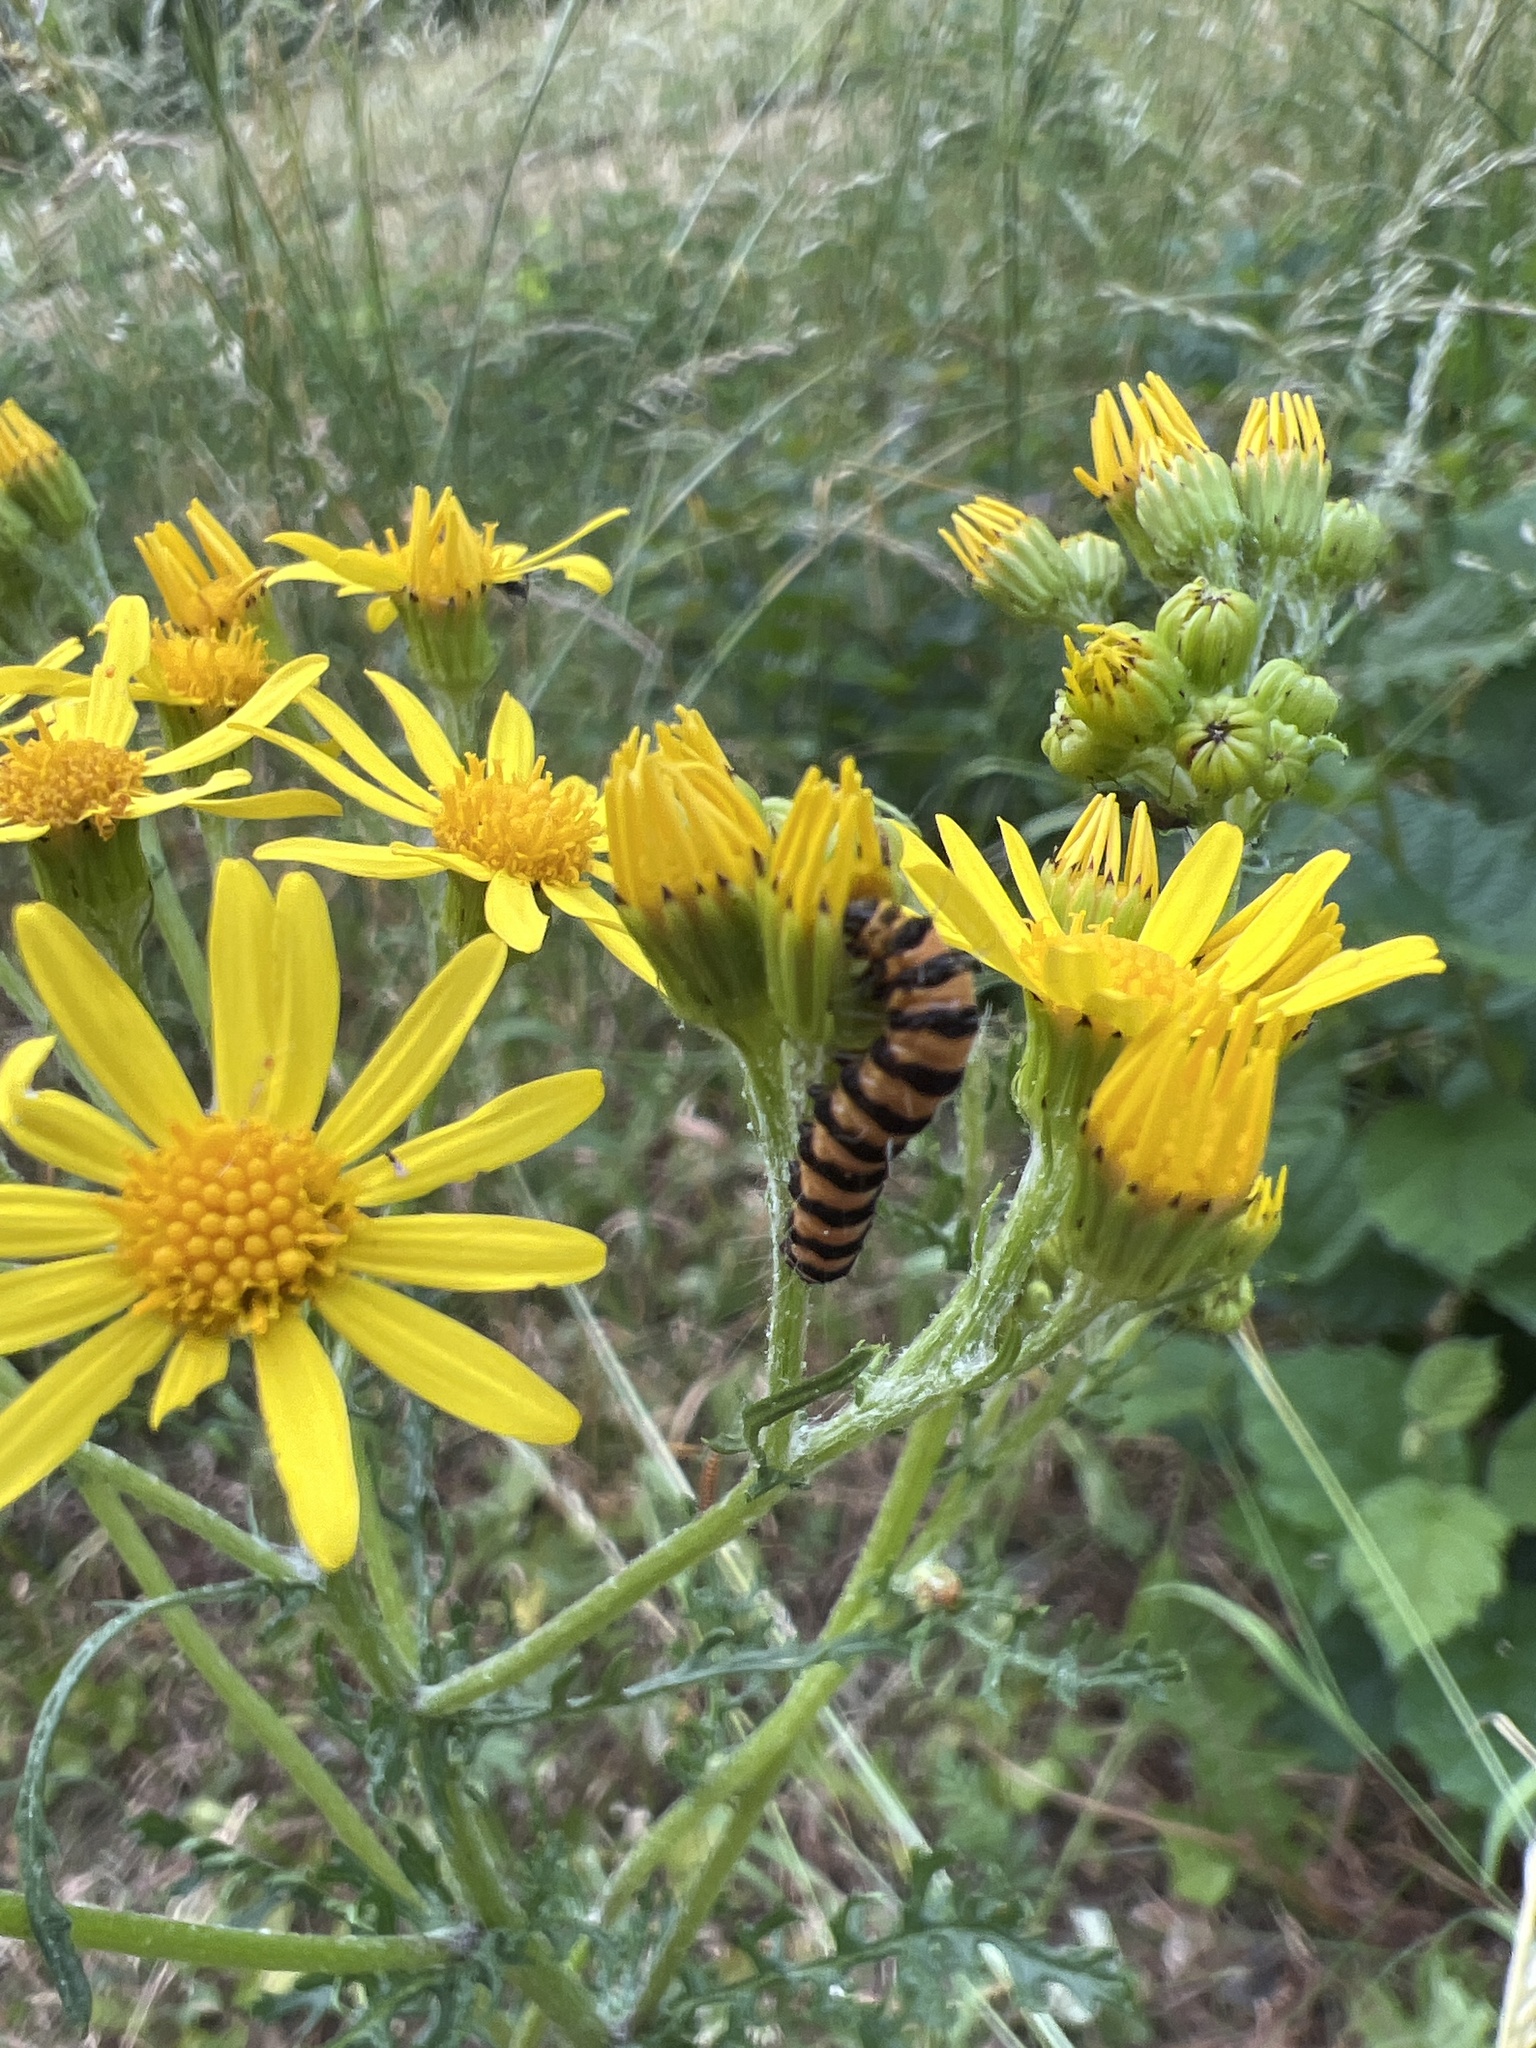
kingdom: Animalia
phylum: Arthropoda
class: Insecta
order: Lepidoptera
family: Erebidae
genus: Tyria
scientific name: Tyria jacobaeae
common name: Cinnabar
